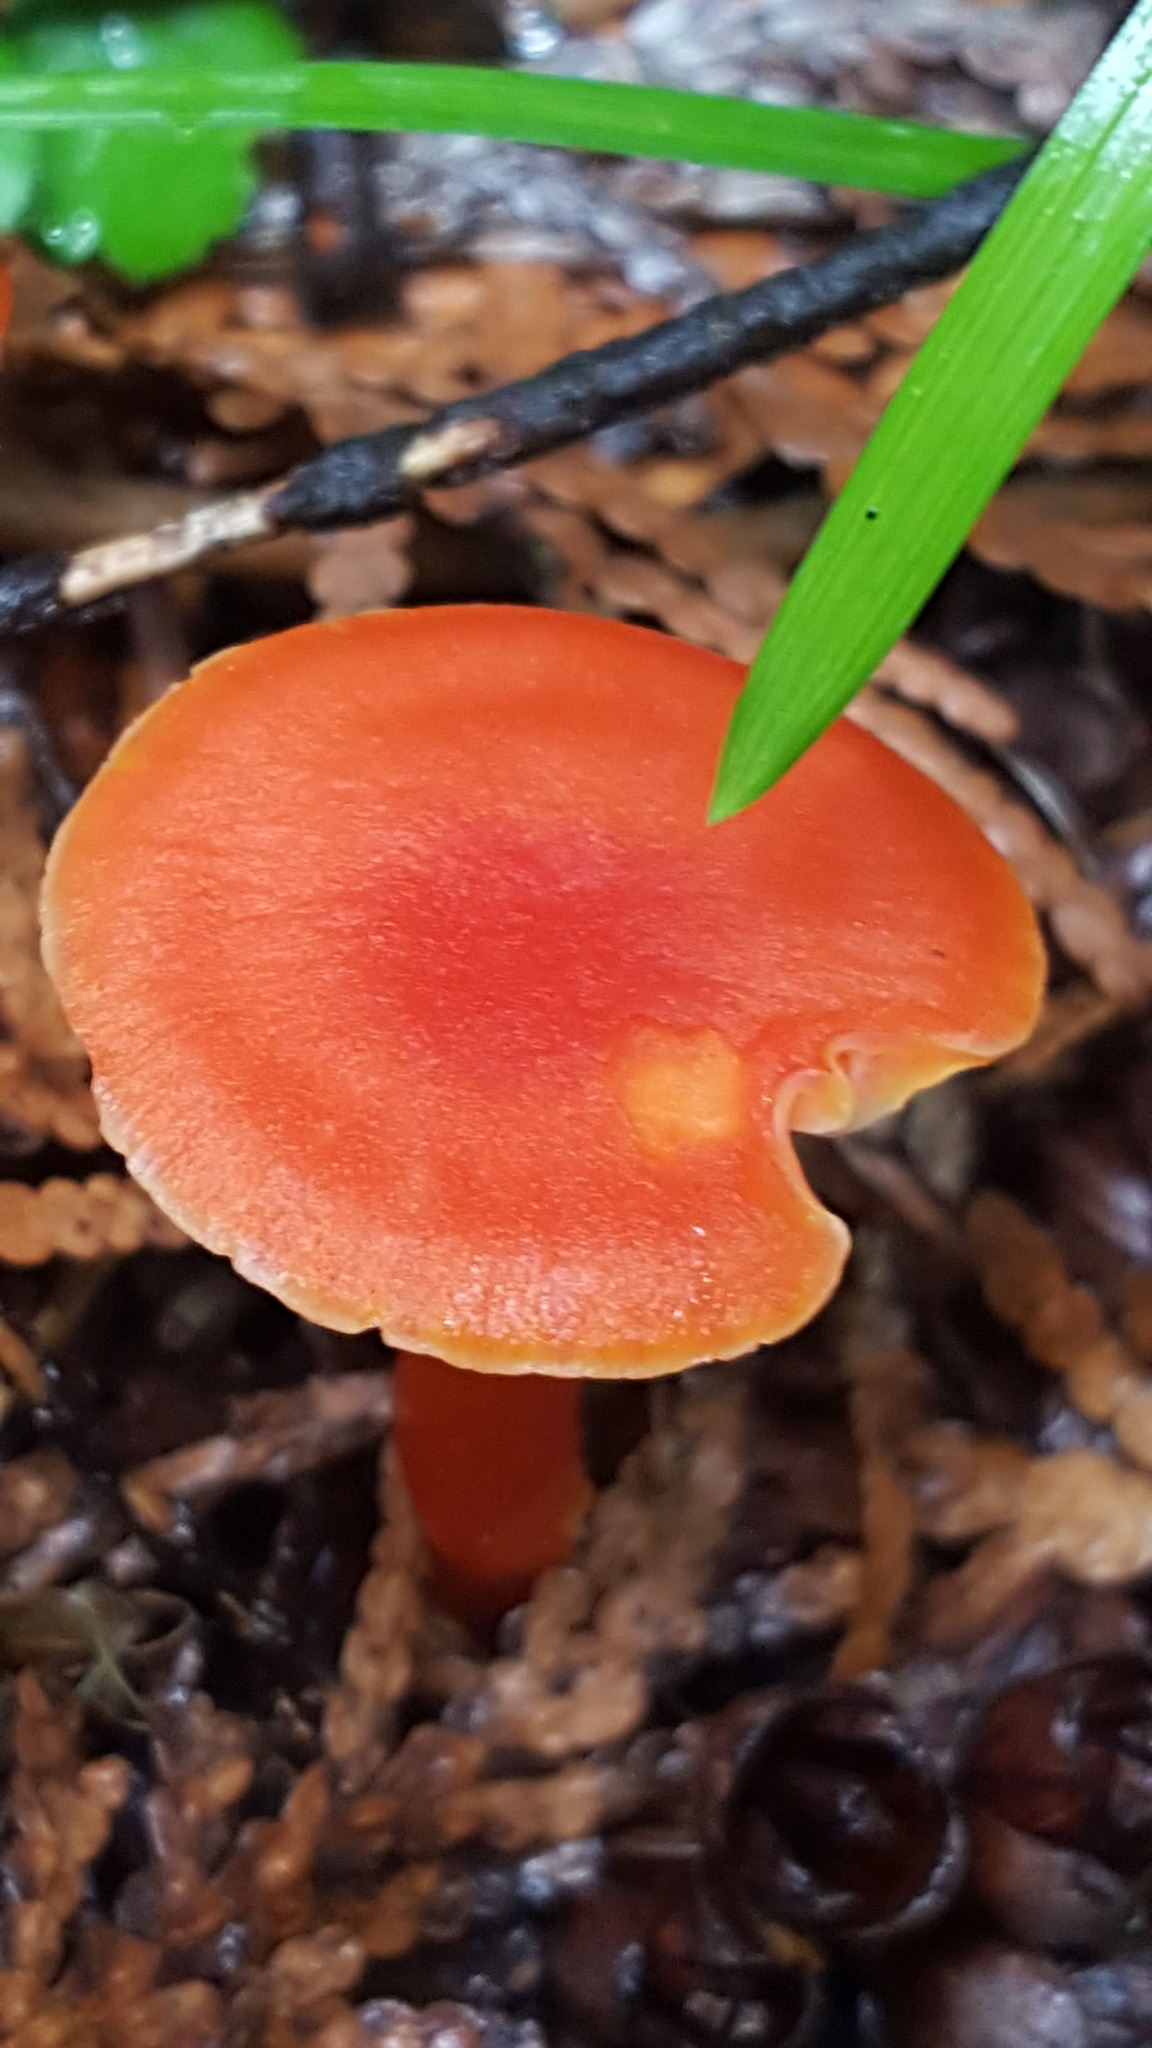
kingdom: Fungi
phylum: Basidiomycota
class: Agaricomycetes
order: Agaricales
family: Hygrophoraceae
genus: Hygrocybe
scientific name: Hygrocybe coccinea
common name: Scarlet hood
